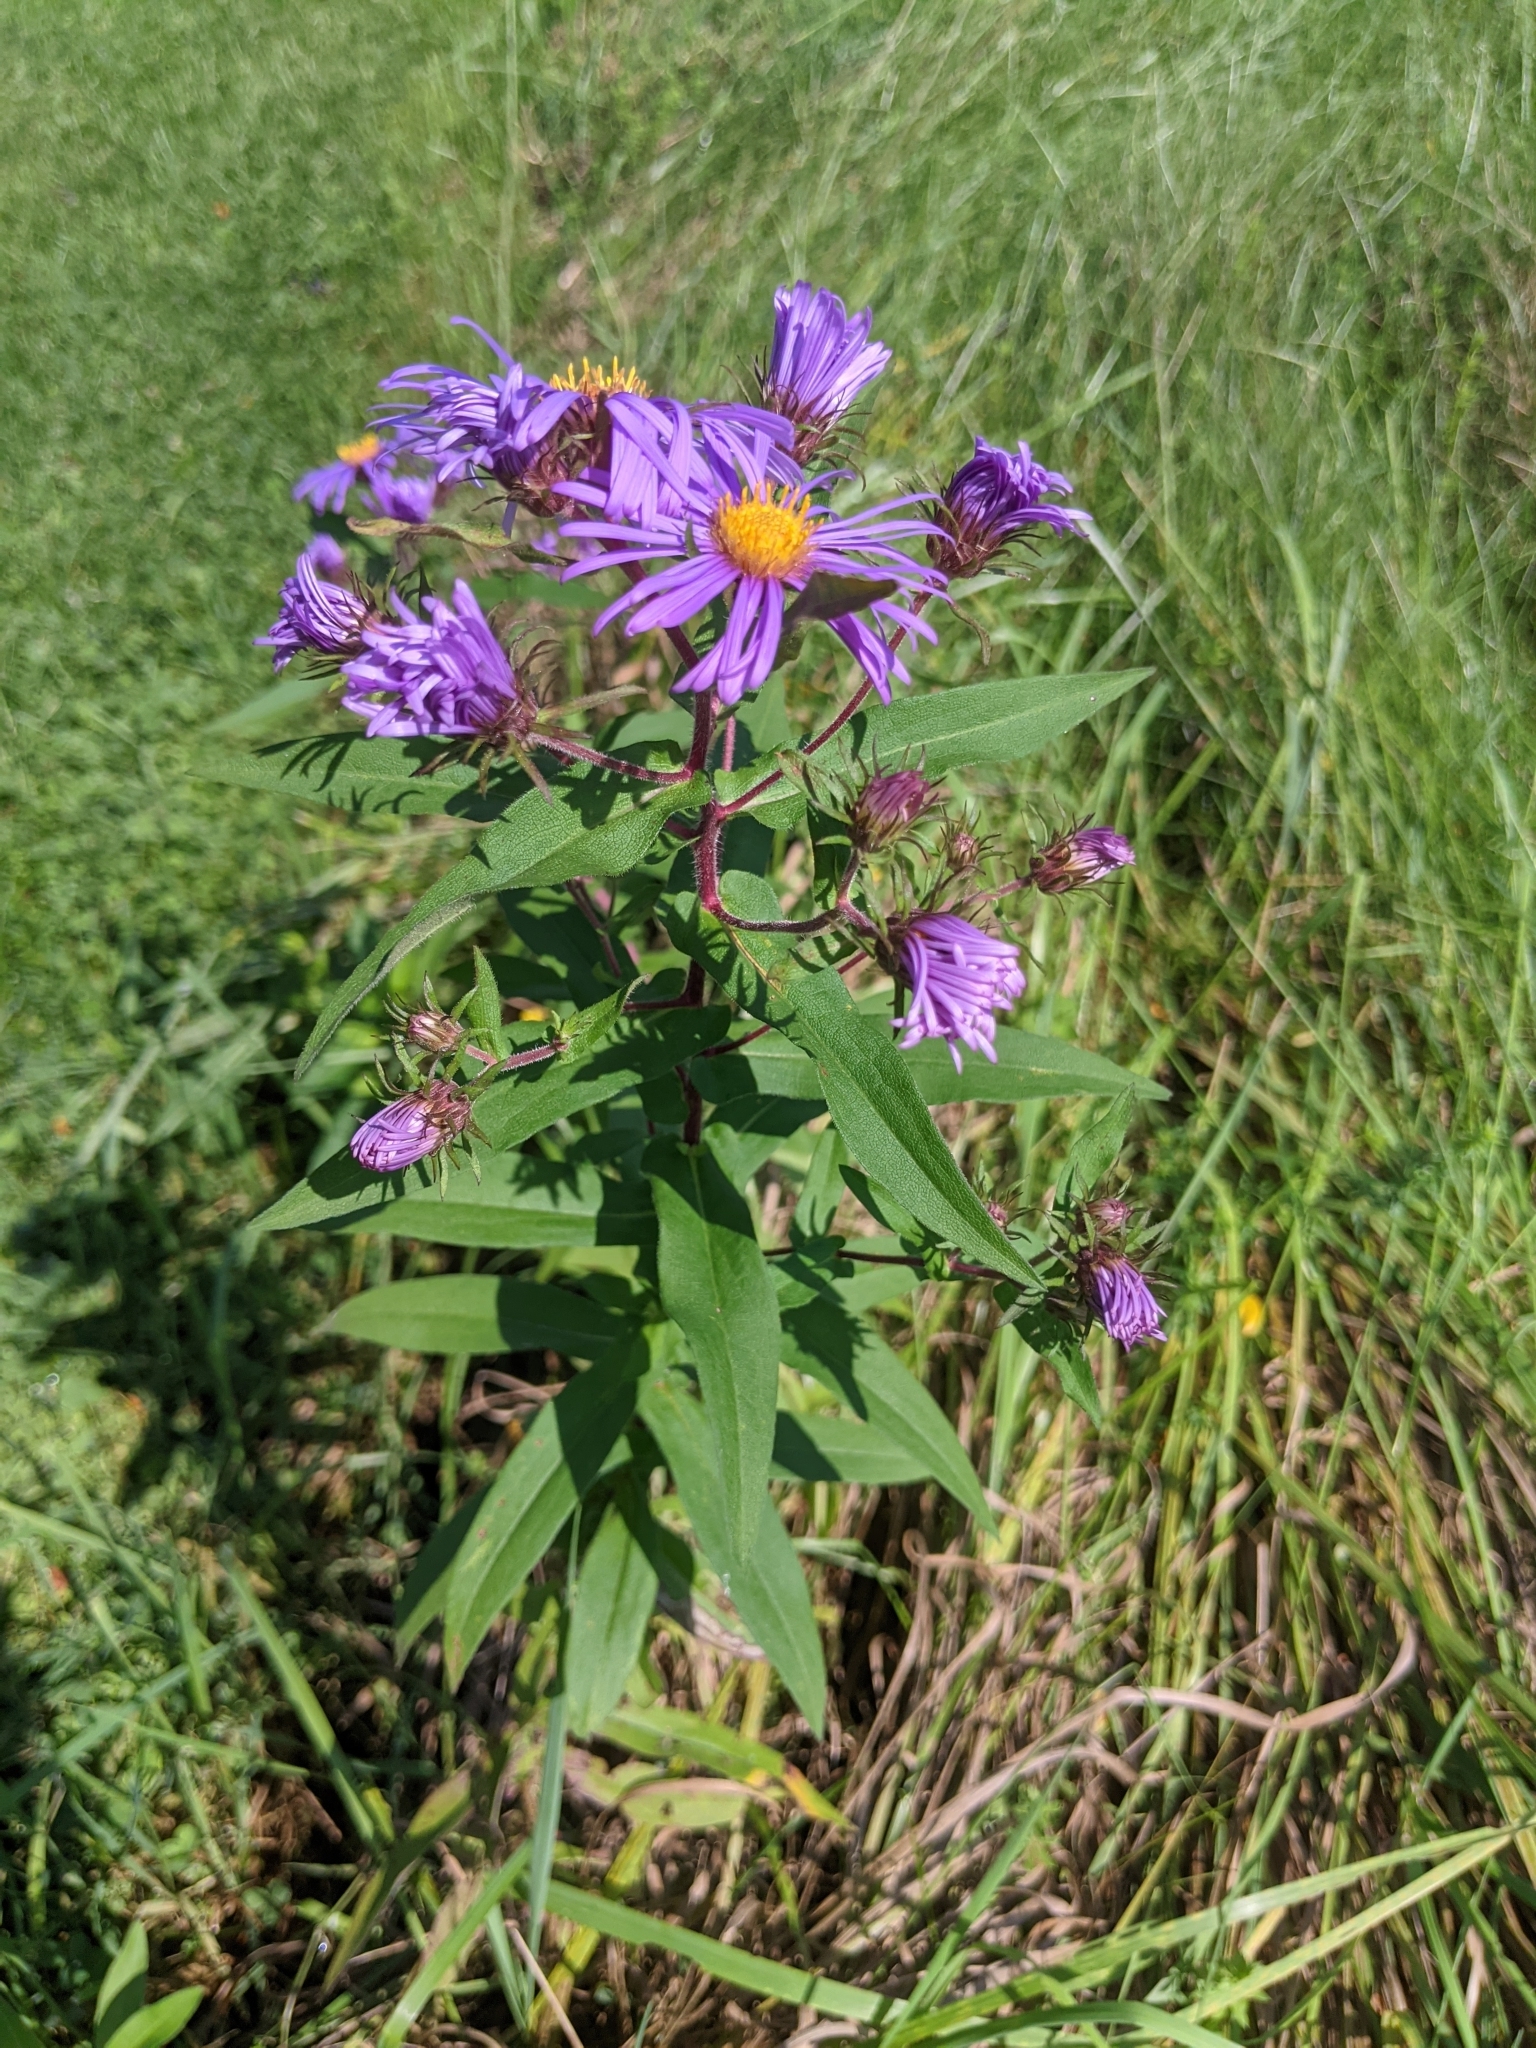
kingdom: Plantae
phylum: Tracheophyta
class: Magnoliopsida
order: Asterales
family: Asteraceae
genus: Symphyotrichum
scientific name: Symphyotrichum novae-angliae
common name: Michaelmas daisy
